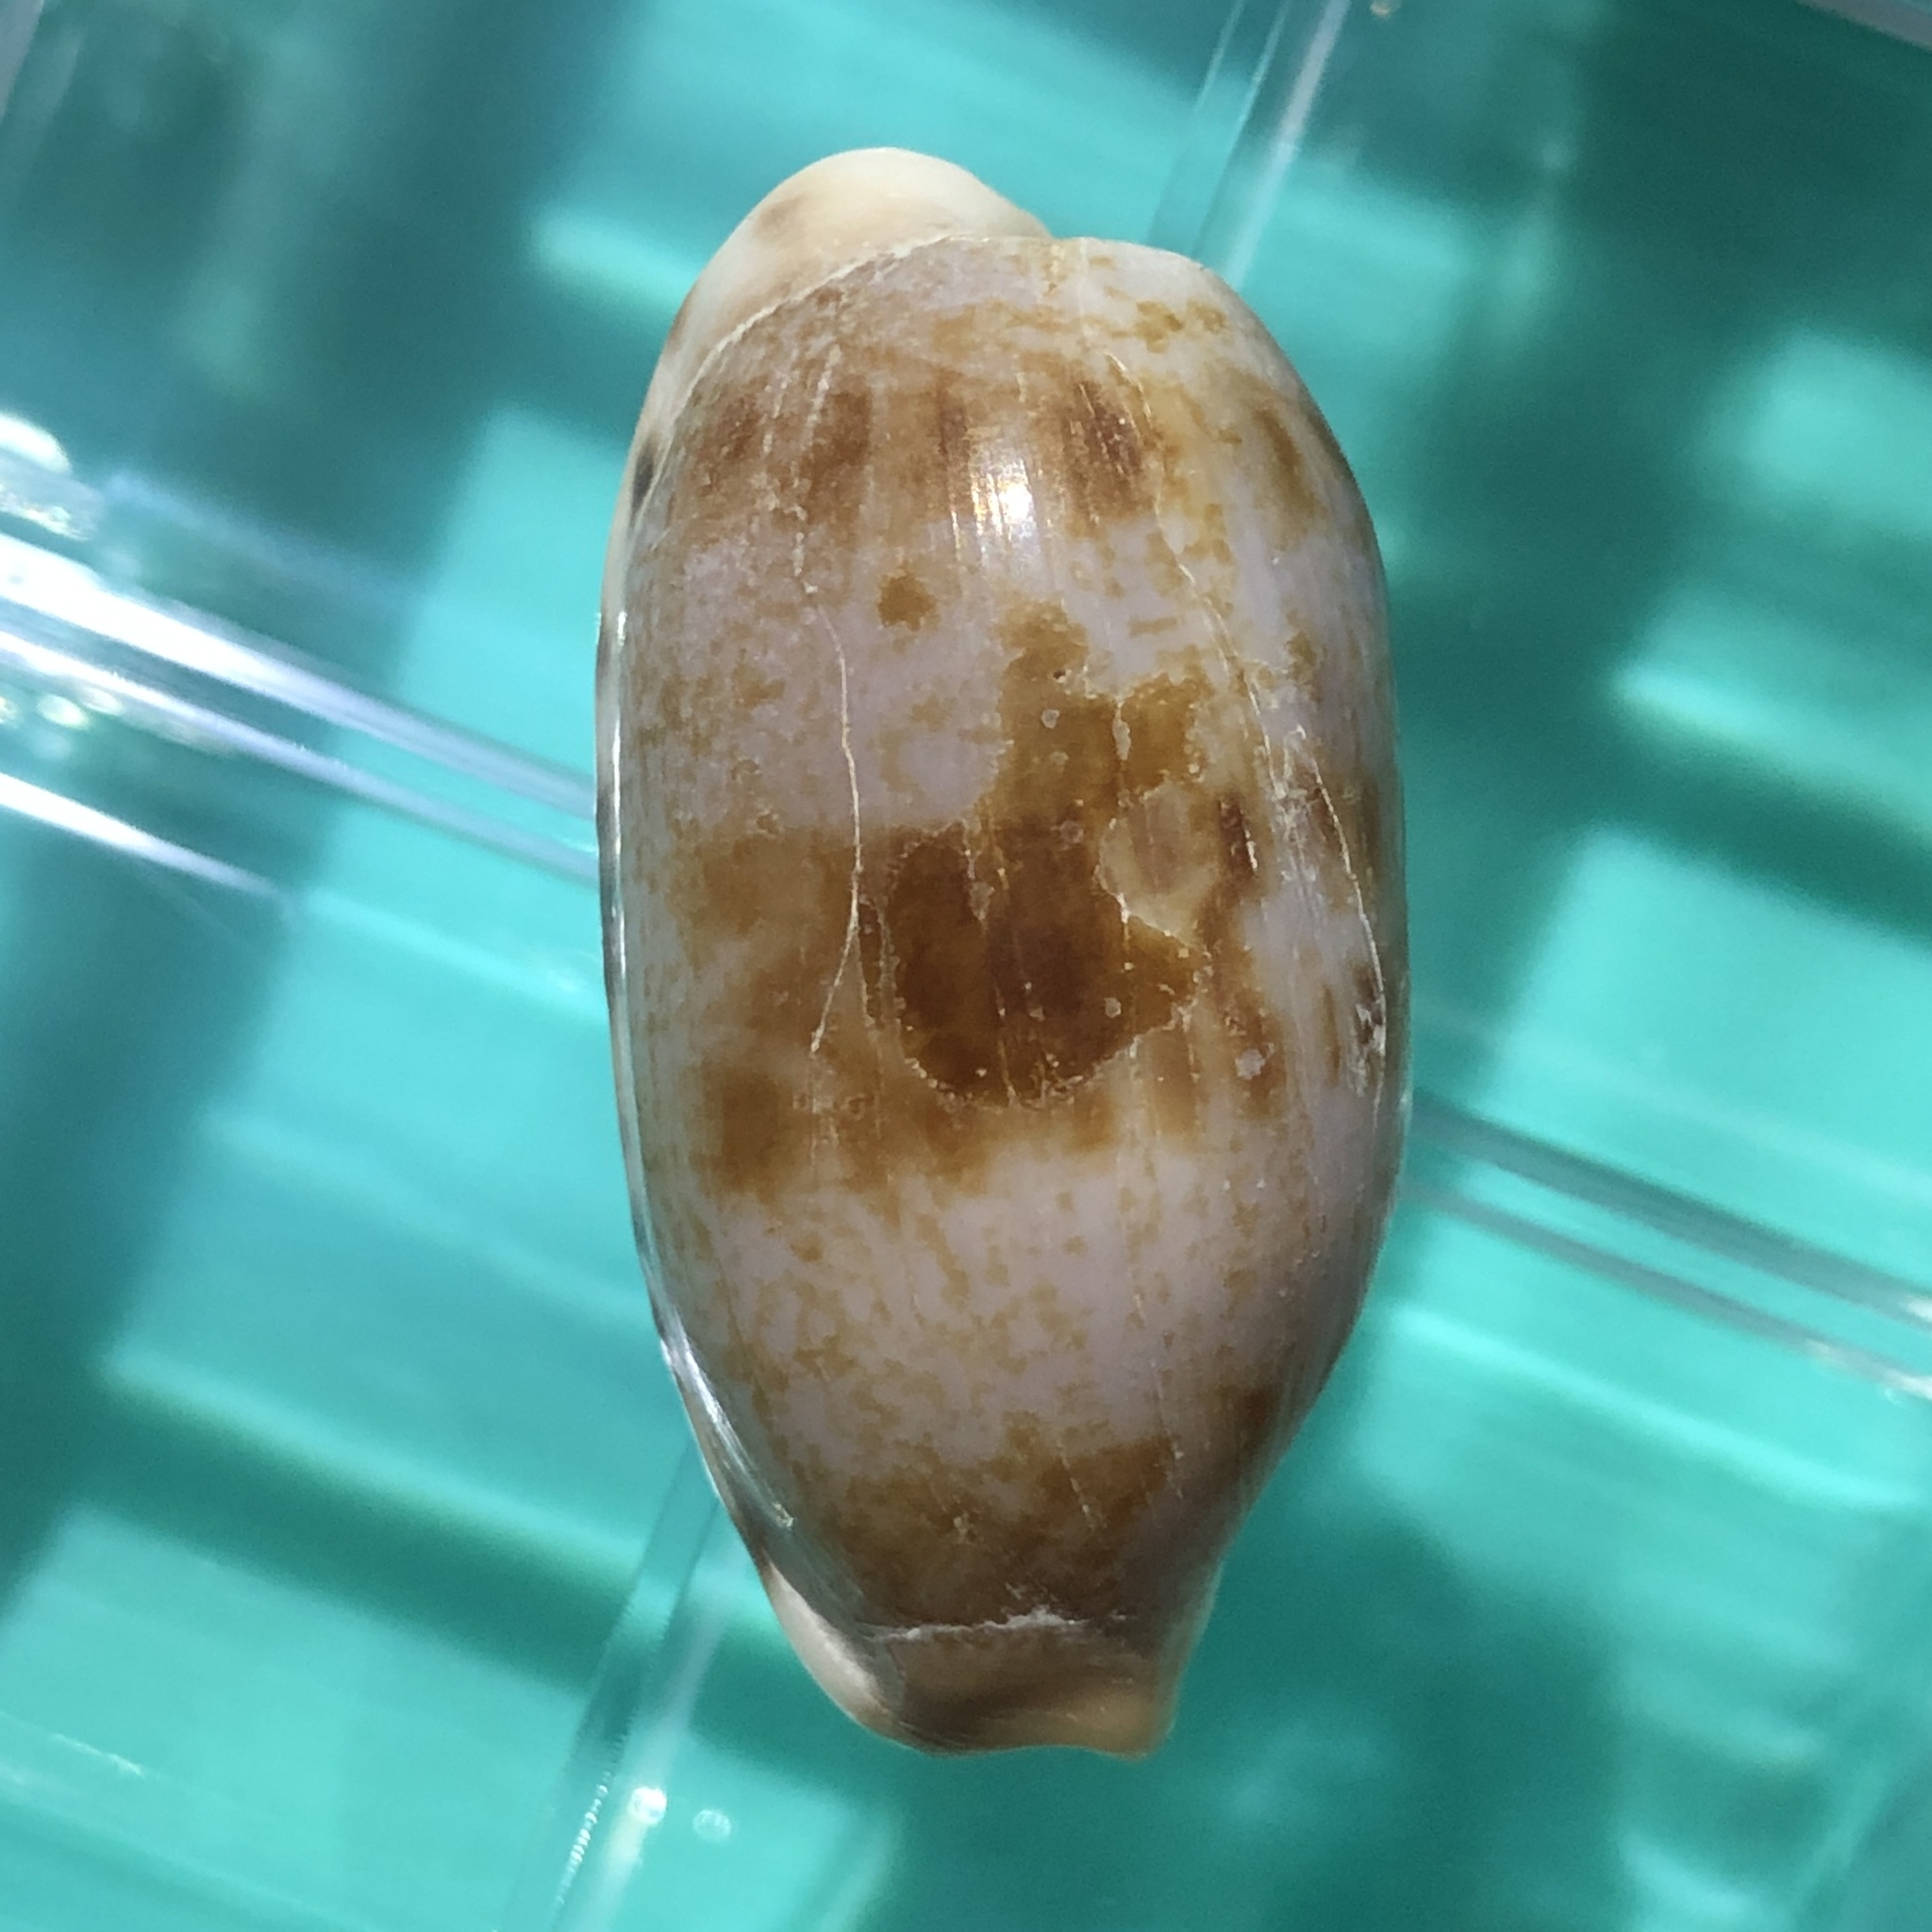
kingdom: Animalia
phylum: Mollusca
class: Gastropoda
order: Littorinimorpha
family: Cypraeidae
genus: Talostolida
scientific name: Talostolida teres
